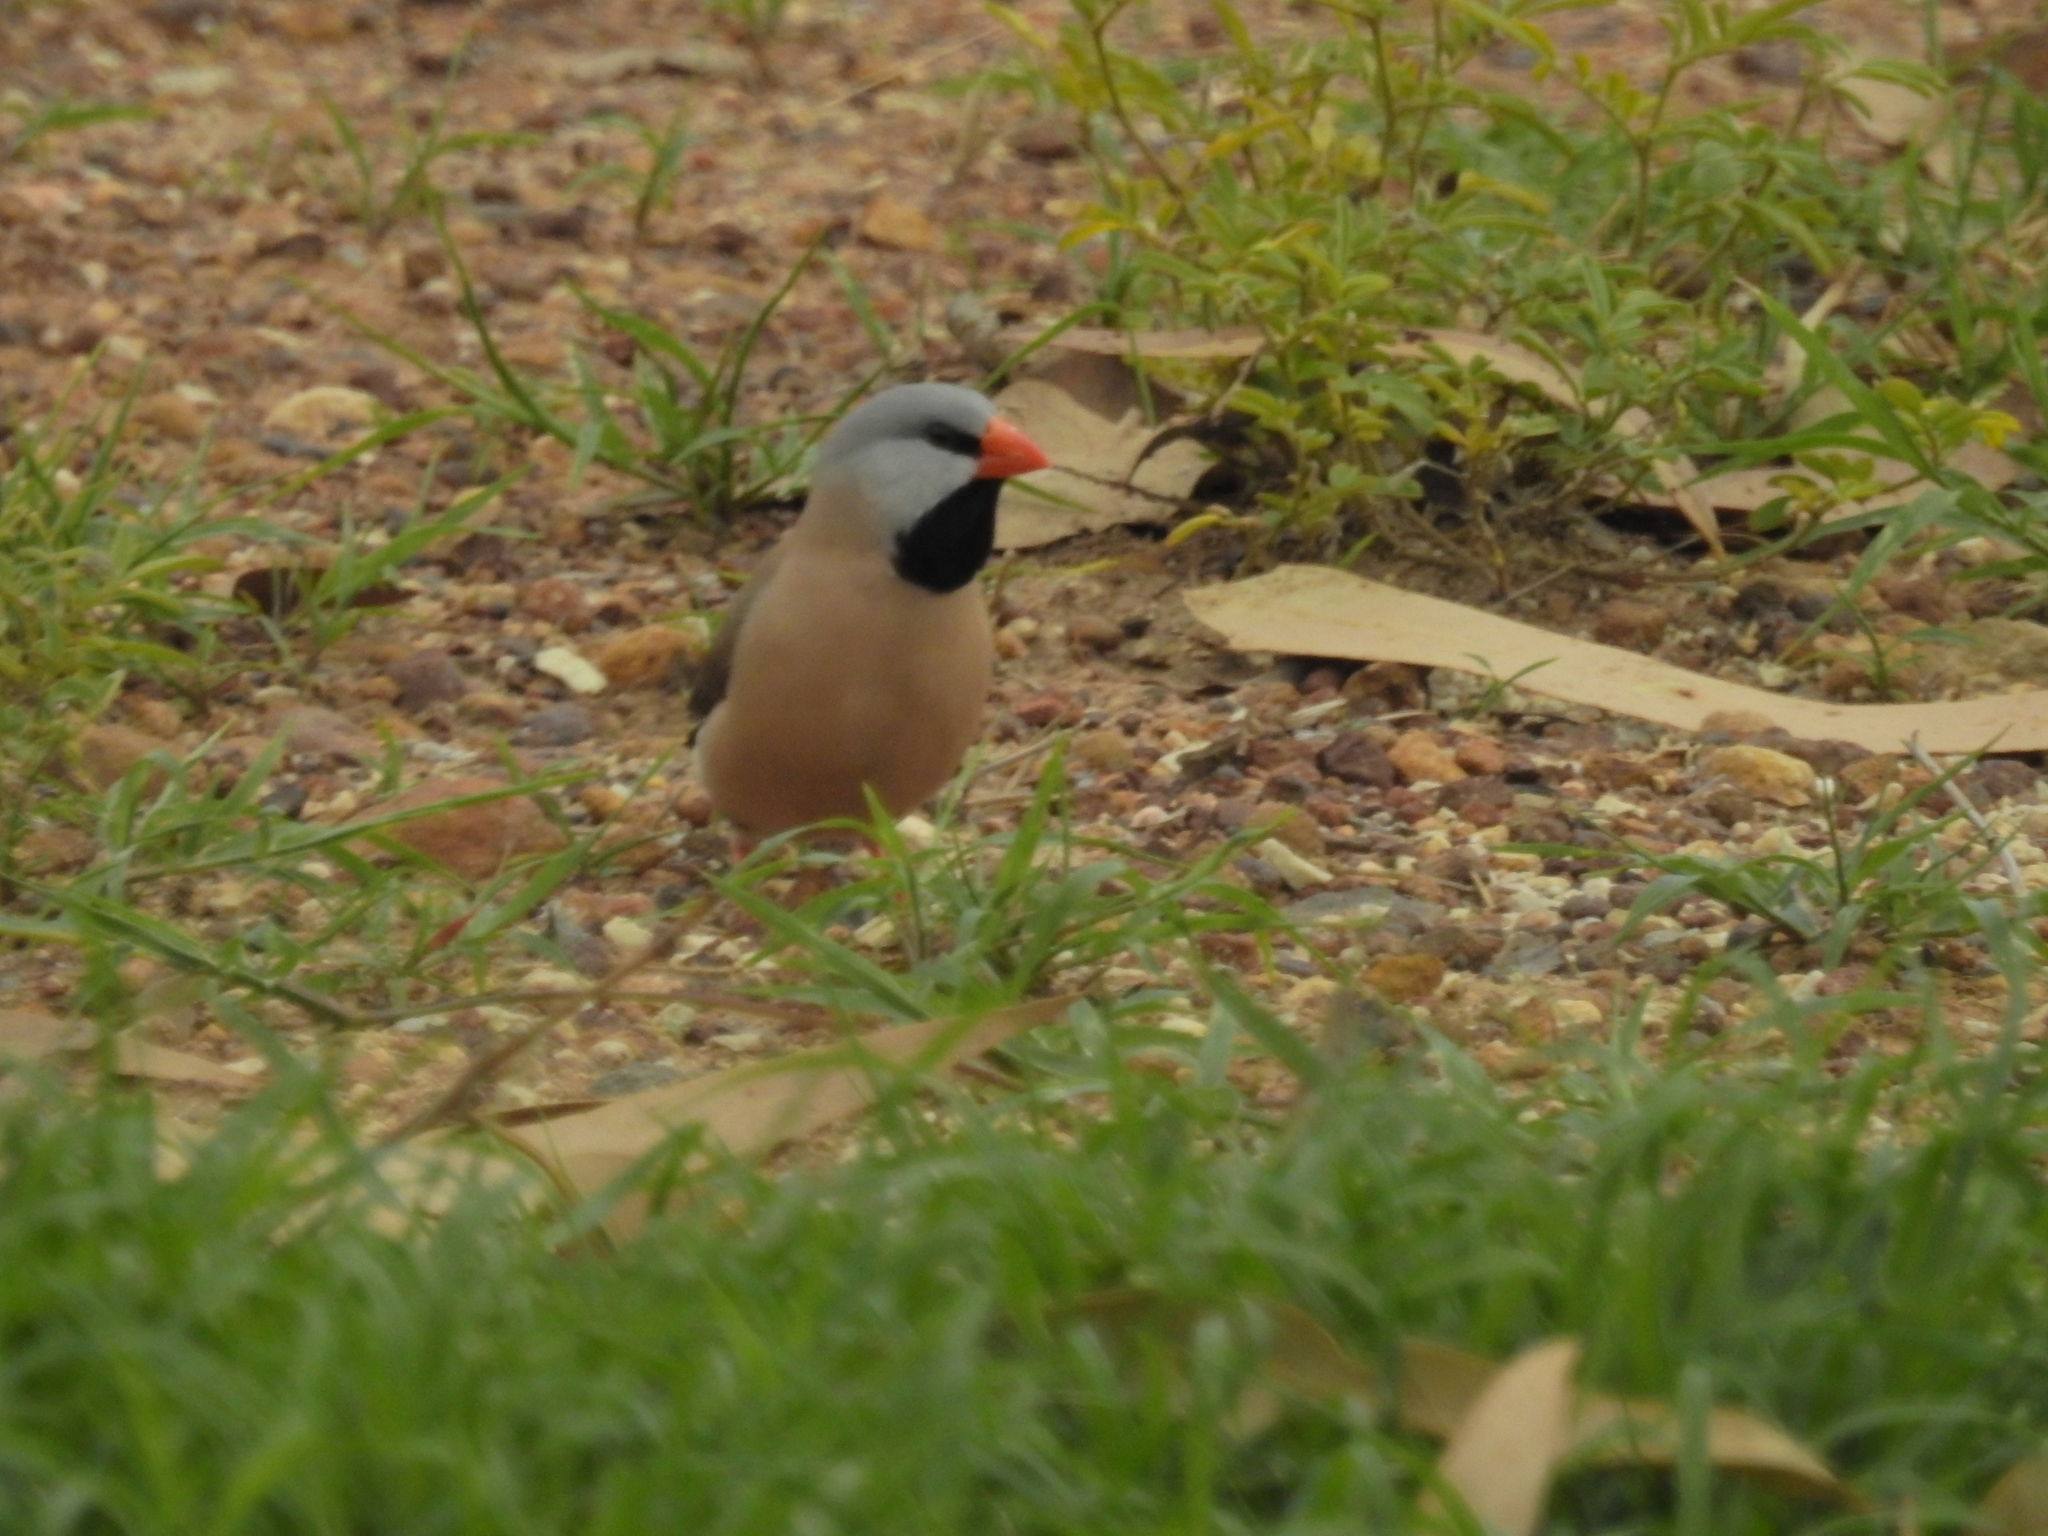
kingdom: Animalia
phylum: Chordata
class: Aves
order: Passeriformes
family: Estrildidae
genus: Poephila
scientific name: Poephila acuticauda
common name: Long-tailed finch
